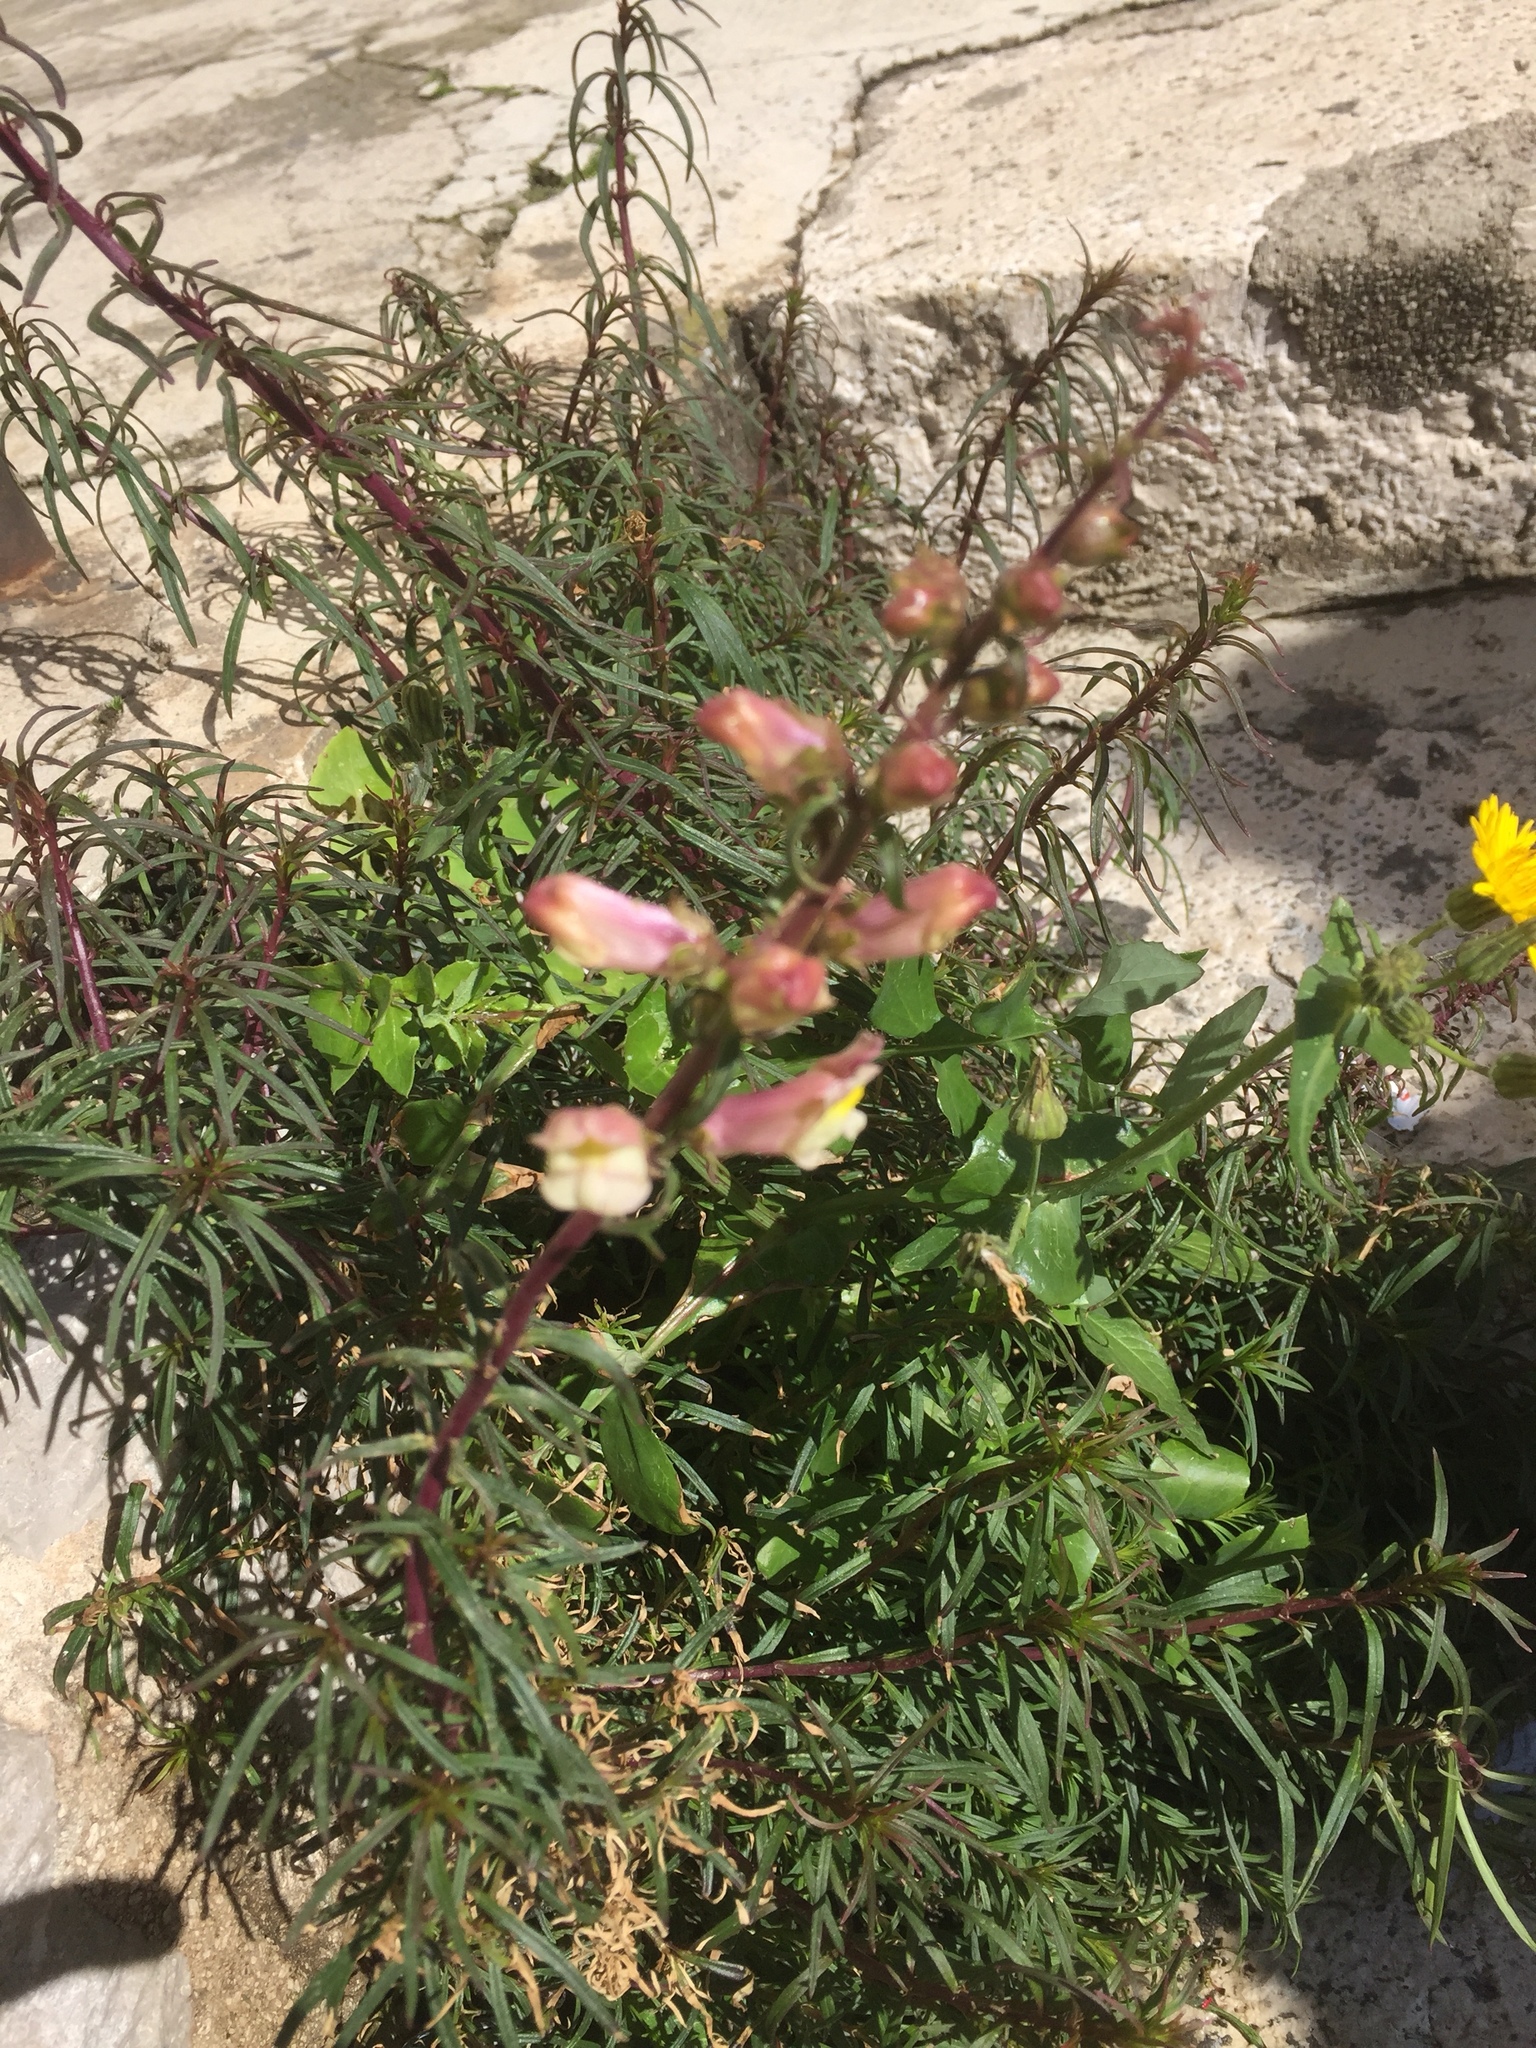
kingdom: Plantae
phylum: Tracheophyta
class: Magnoliopsida
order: Lamiales
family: Plantaginaceae
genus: Antirrhinum
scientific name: Antirrhinum siculum
